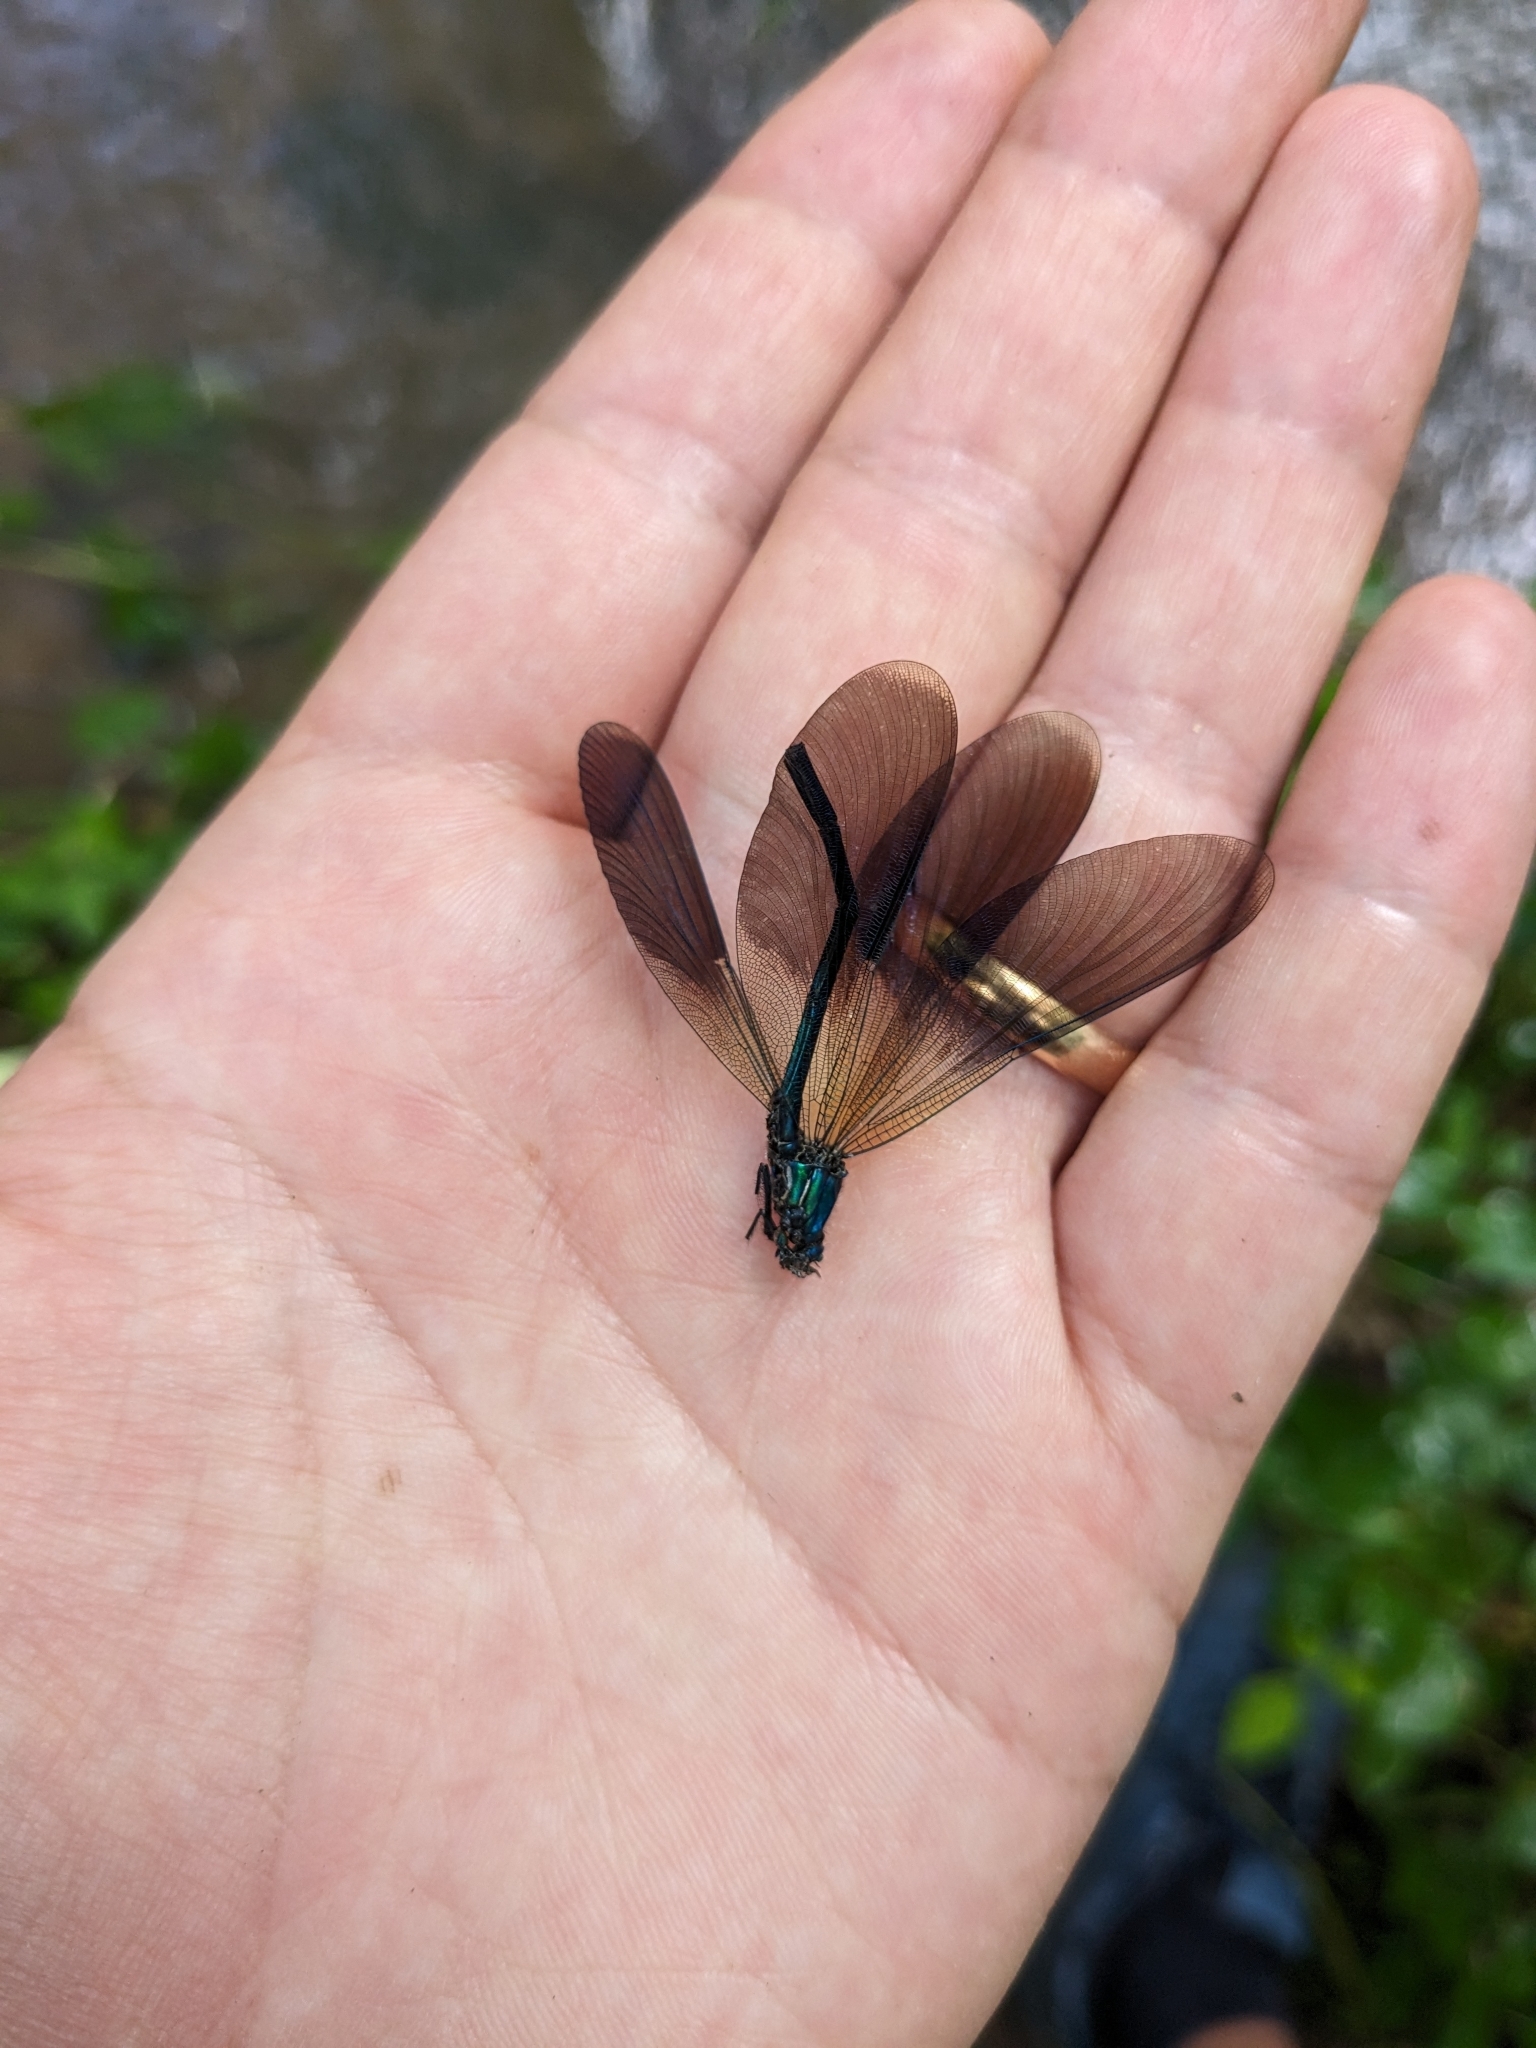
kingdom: Animalia
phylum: Arthropoda
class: Insecta
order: Odonata
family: Calopterygidae
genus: Calopteryx
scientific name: Calopteryx splendens
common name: Banded demoiselle
